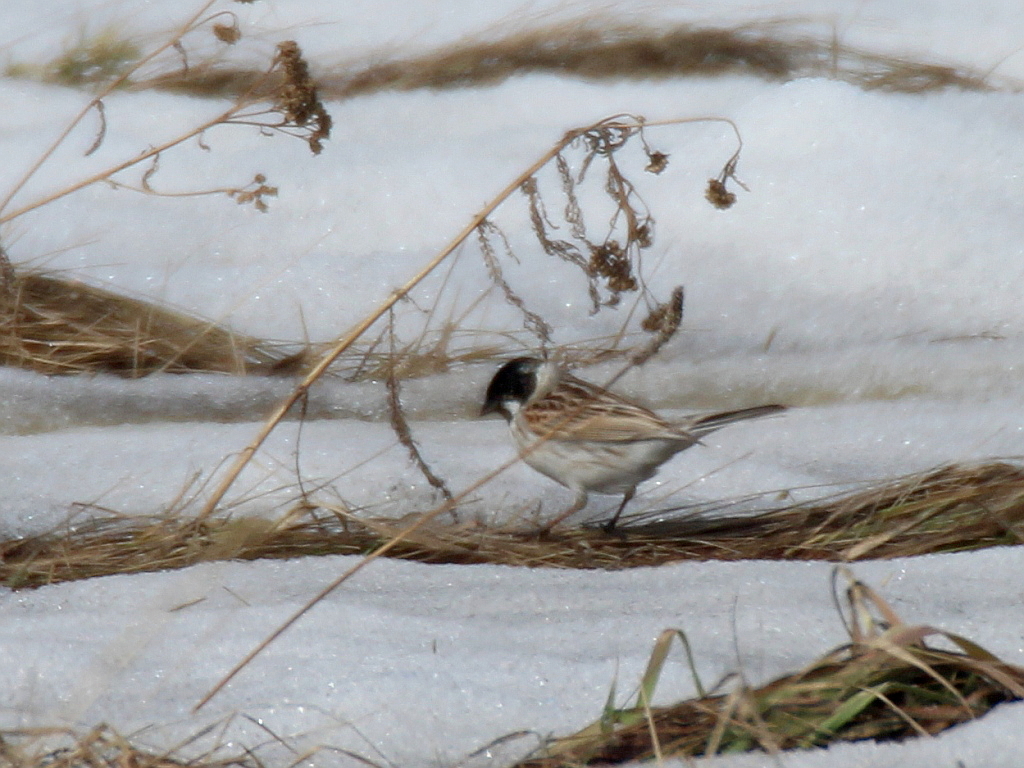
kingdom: Animalia
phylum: Chordata
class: Aves
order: Passeriformes
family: Emberizidae
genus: Emberiza
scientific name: Emberiza schoeniclus
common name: Reed bunting
